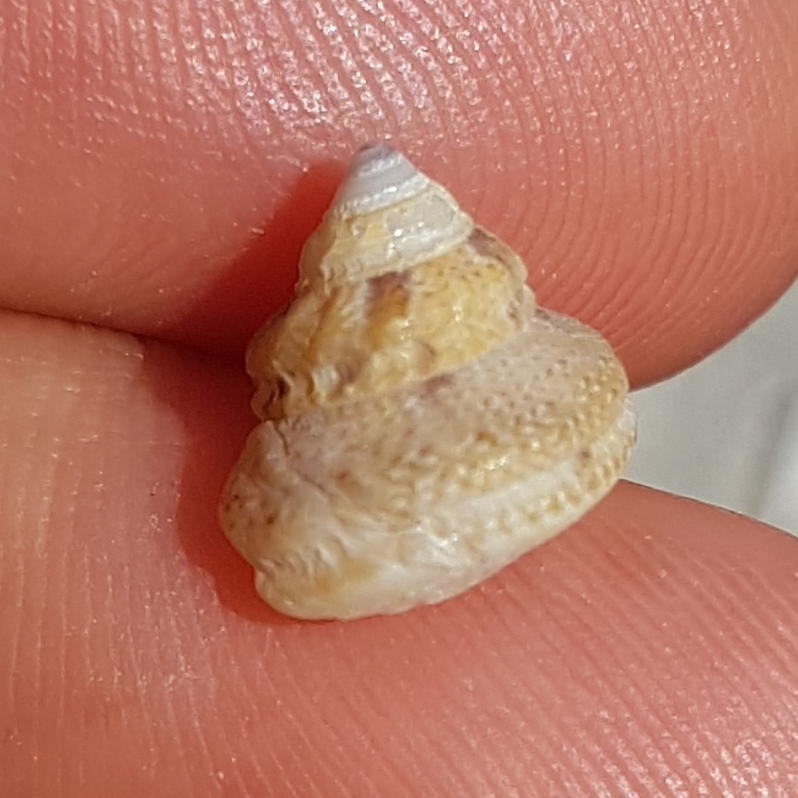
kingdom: Animalia
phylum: Mollusca
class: Gastropoda
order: Trochida
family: Trochidae
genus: Gibbula
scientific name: Gibbula fanulum
